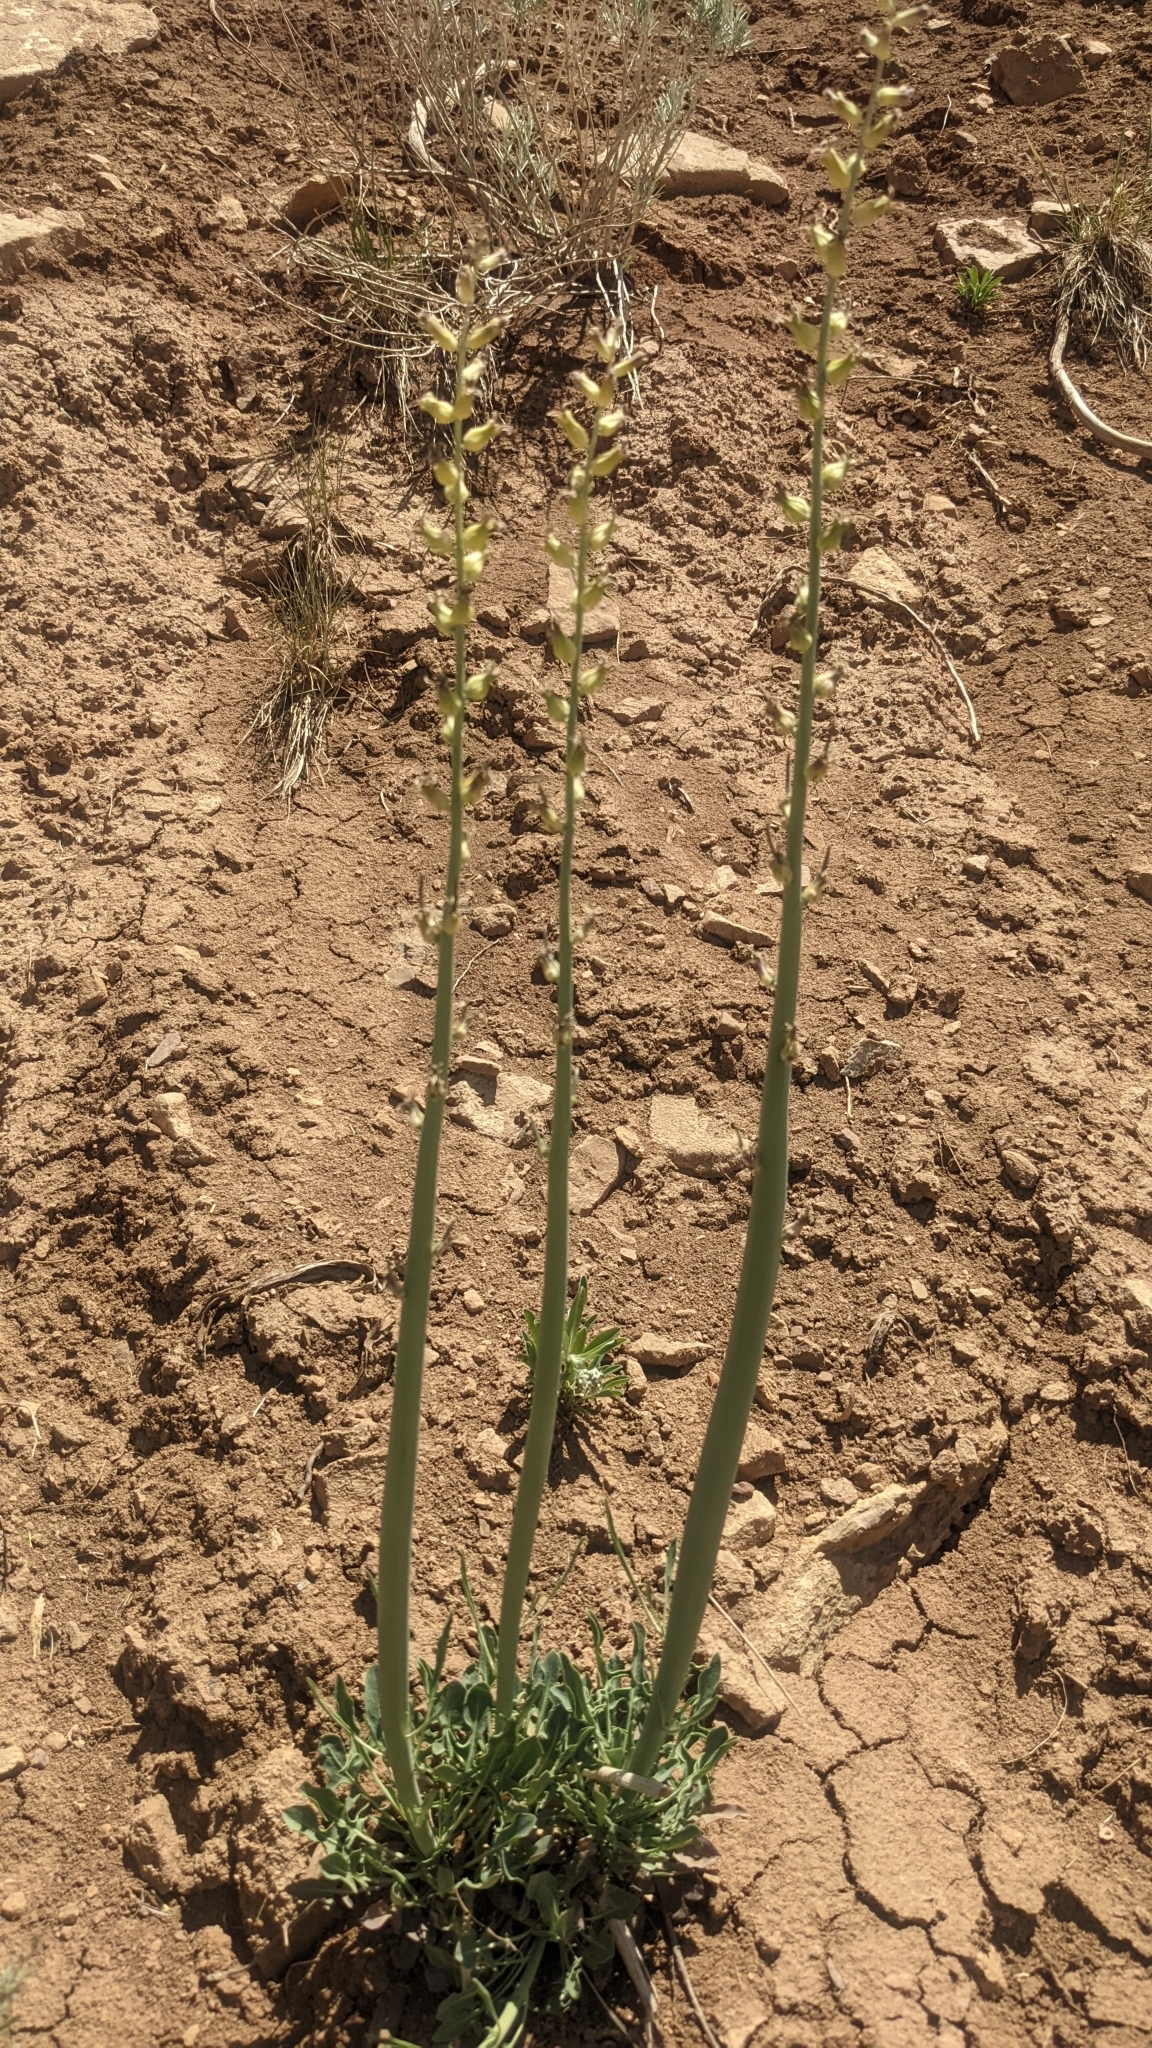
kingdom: Plantae
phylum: Tracheophyta
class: Magnoliopsida
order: Brassicales
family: Brassicaceae
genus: Streptanthus
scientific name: Streptanthus crassicaulis
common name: Thick-stem wild cabbage
